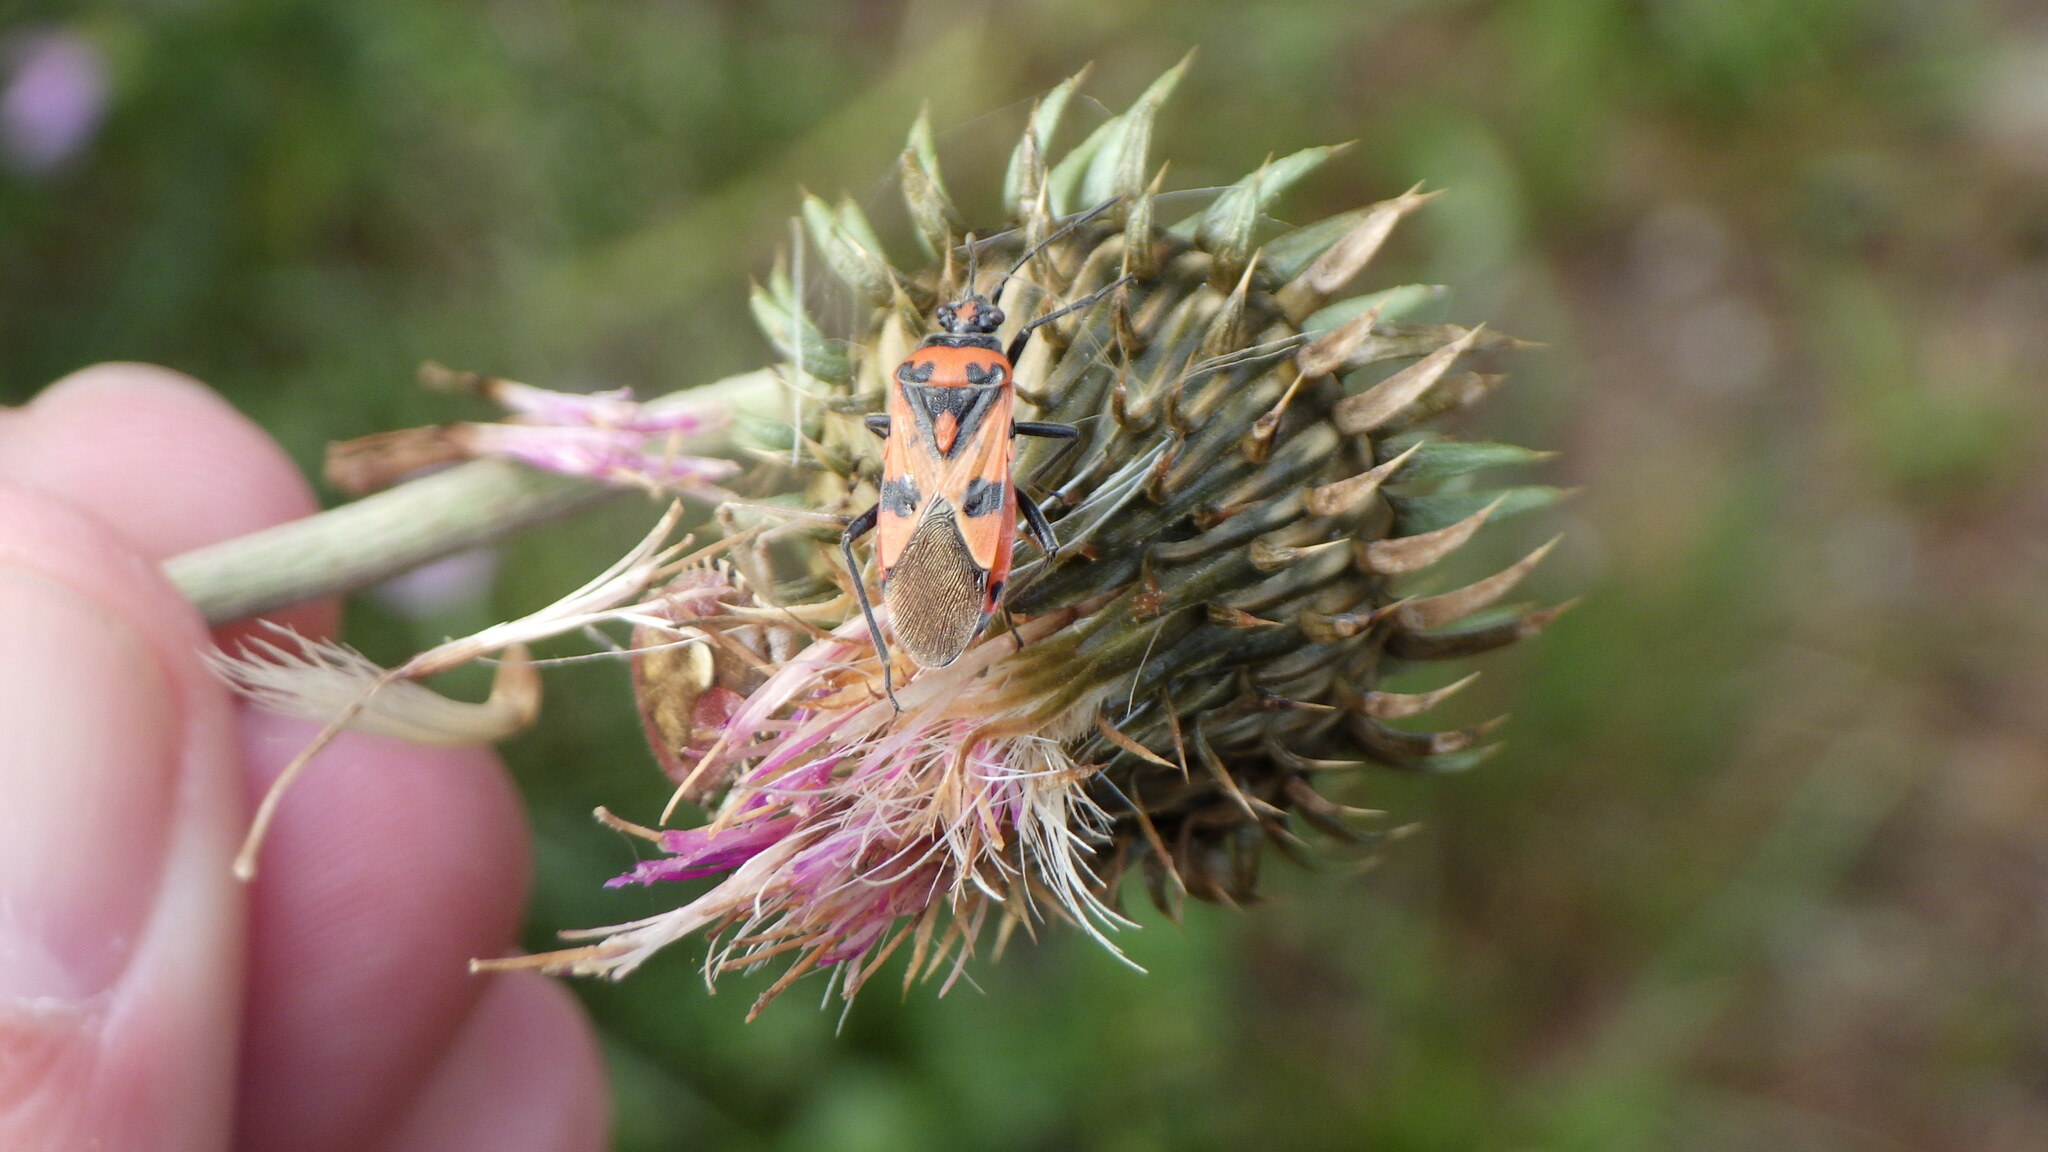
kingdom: Animalia
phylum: Arthropoda
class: Insecta
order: Hemiptera
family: Rhopalidae
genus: Corizus
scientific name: Corizus hyoscyami
